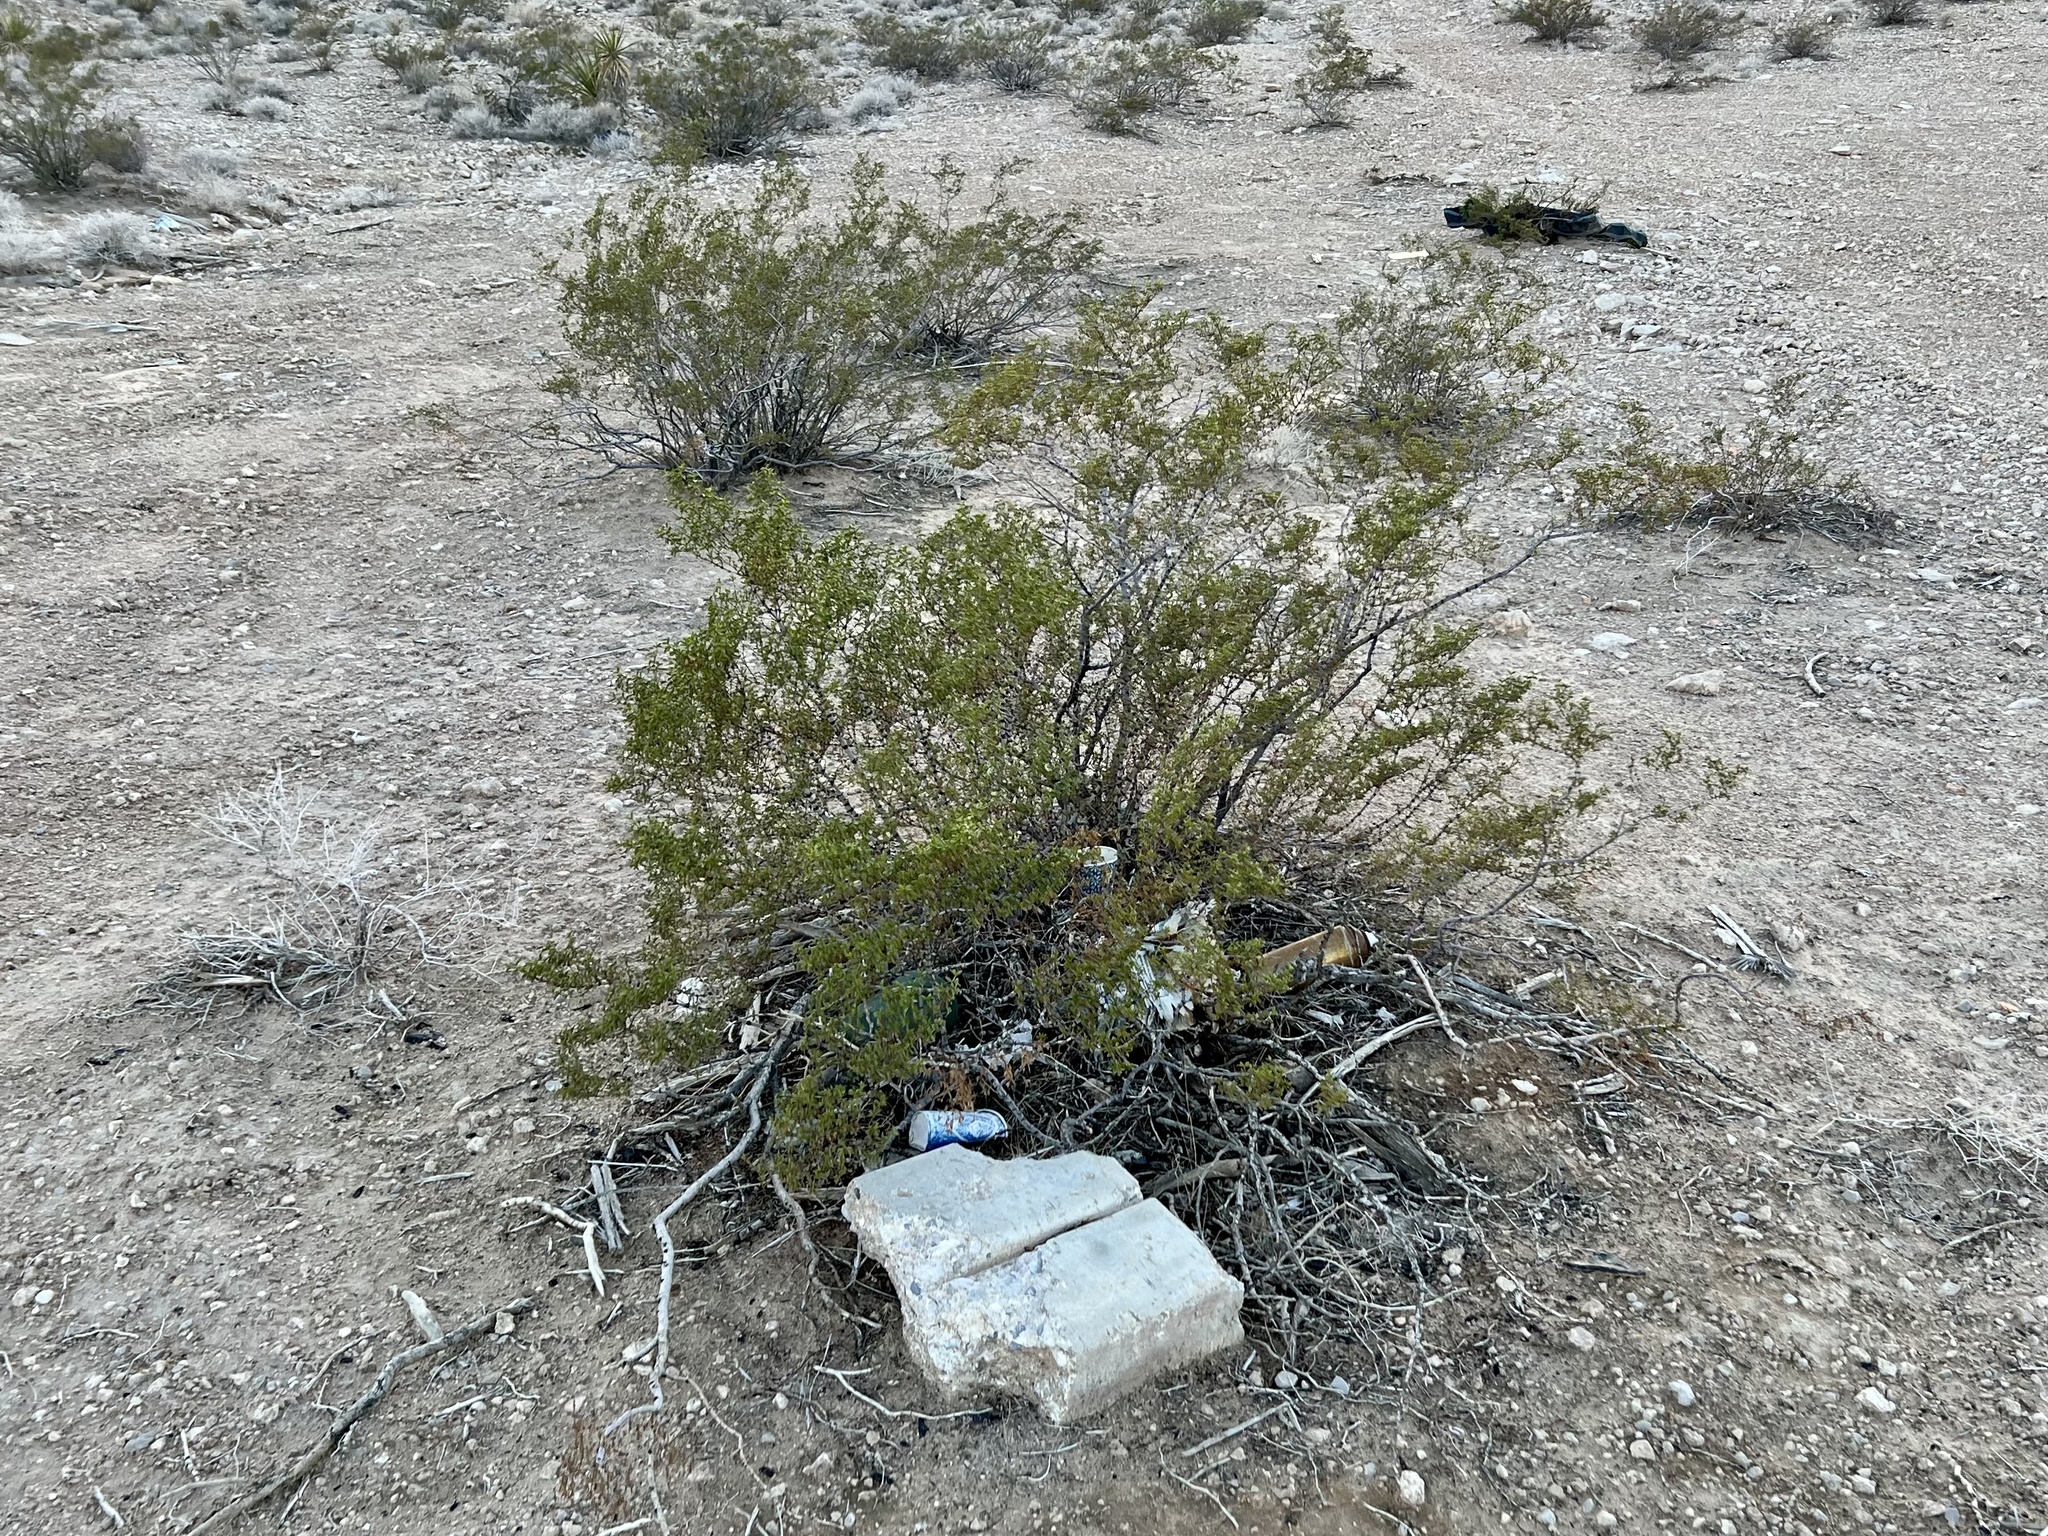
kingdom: Plantae
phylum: Tracheophyta
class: Magnoliopsida
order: Zygophyllales
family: Zygophyllaceae
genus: Larrea
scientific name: Larrea tridentata
